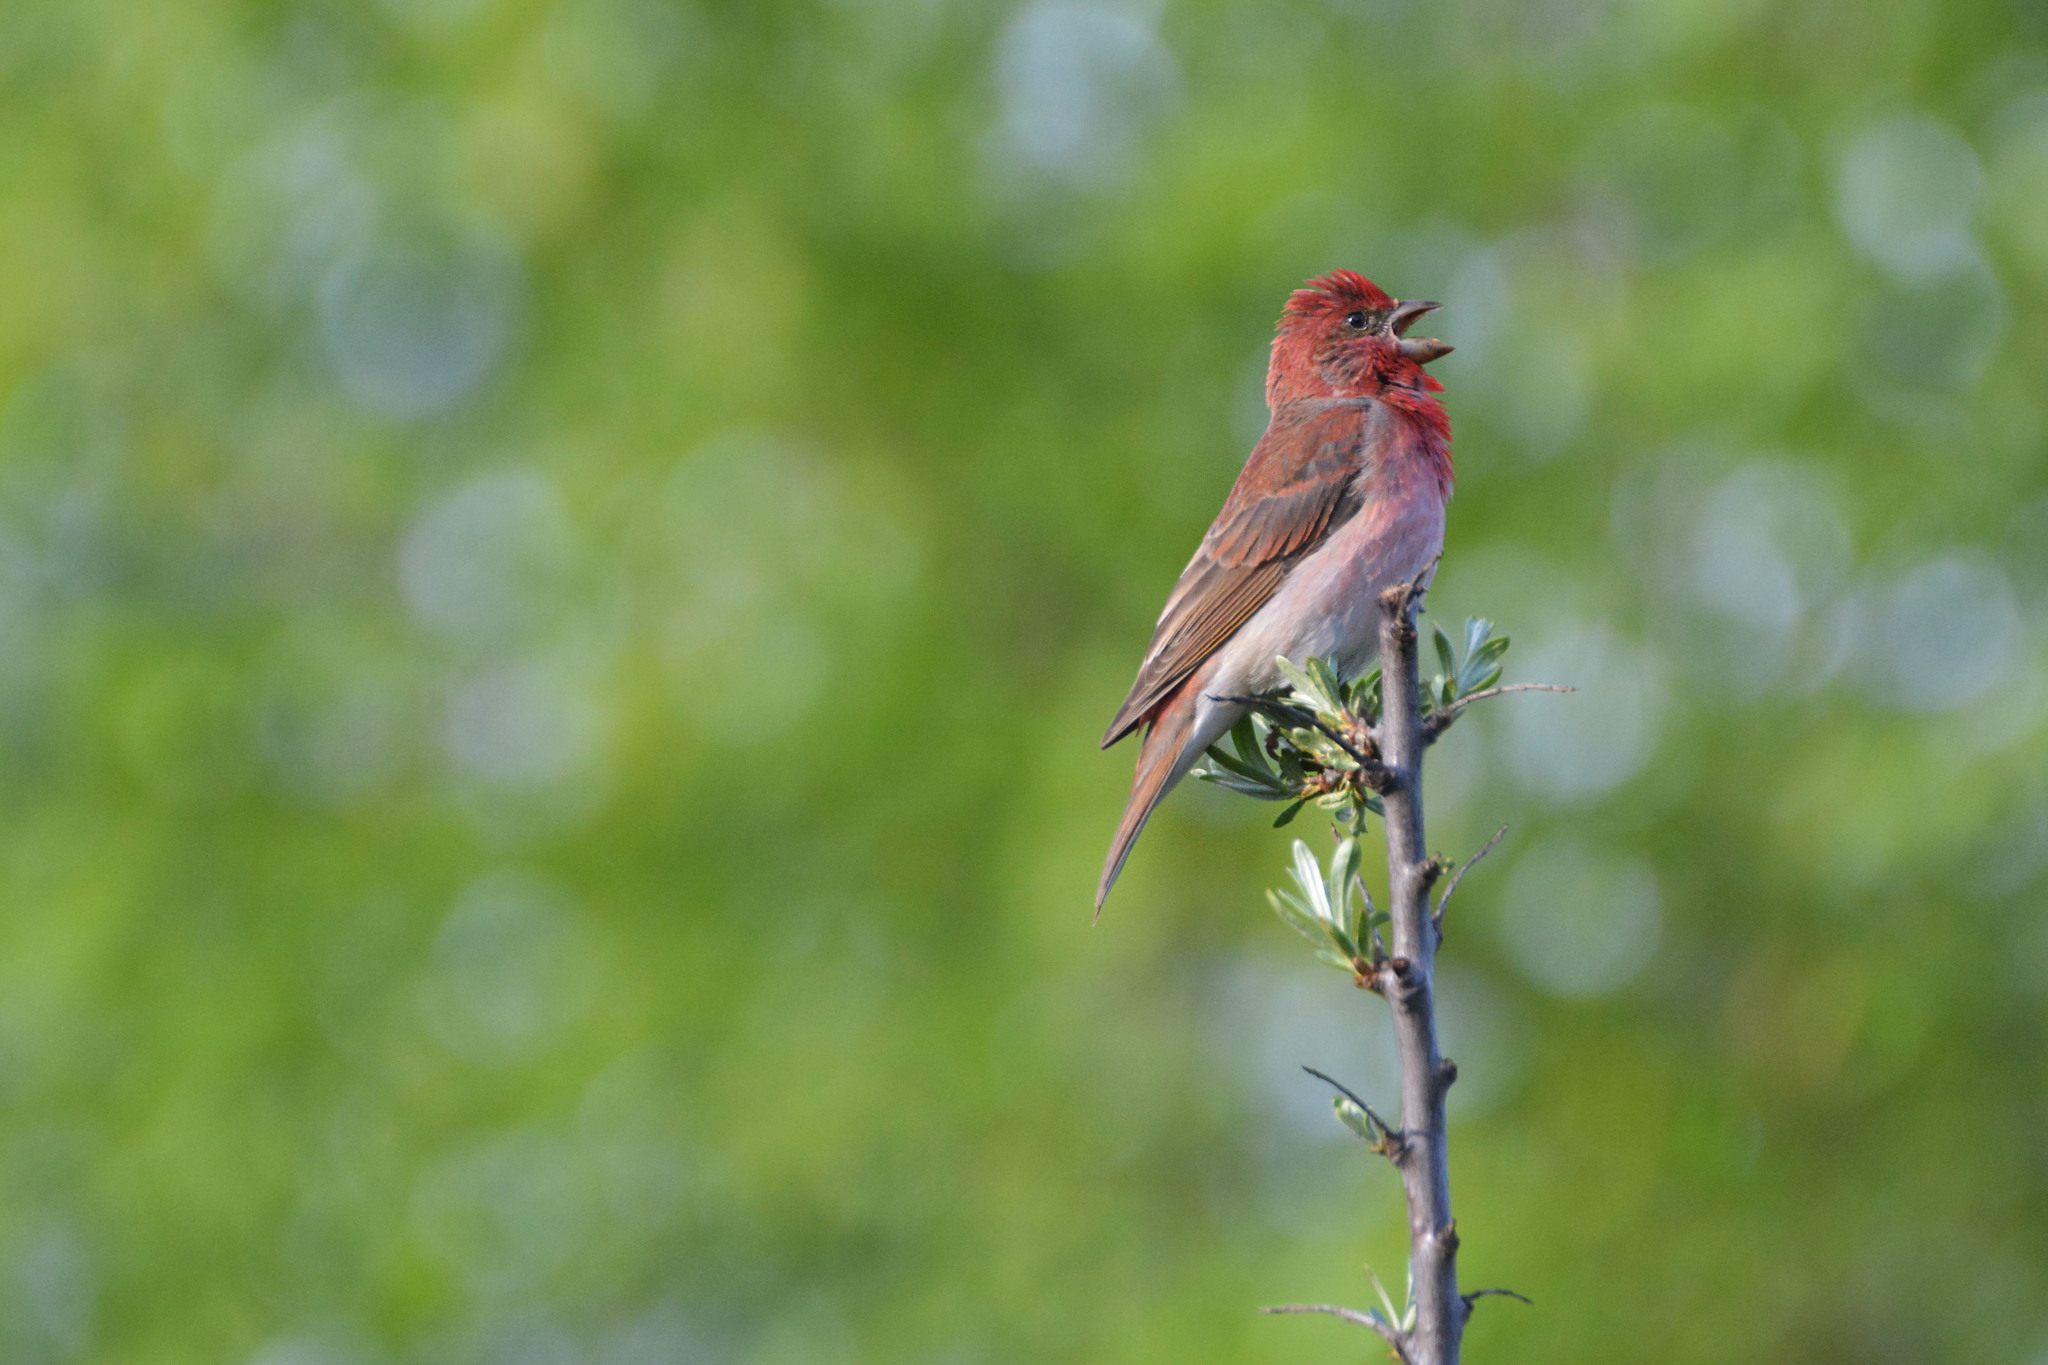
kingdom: Animalia
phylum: Chordata
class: Aves
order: Passeriformes
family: Fringillidae
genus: Carpodacus
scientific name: Carpodacus erythrinus
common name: Common rosefinch
